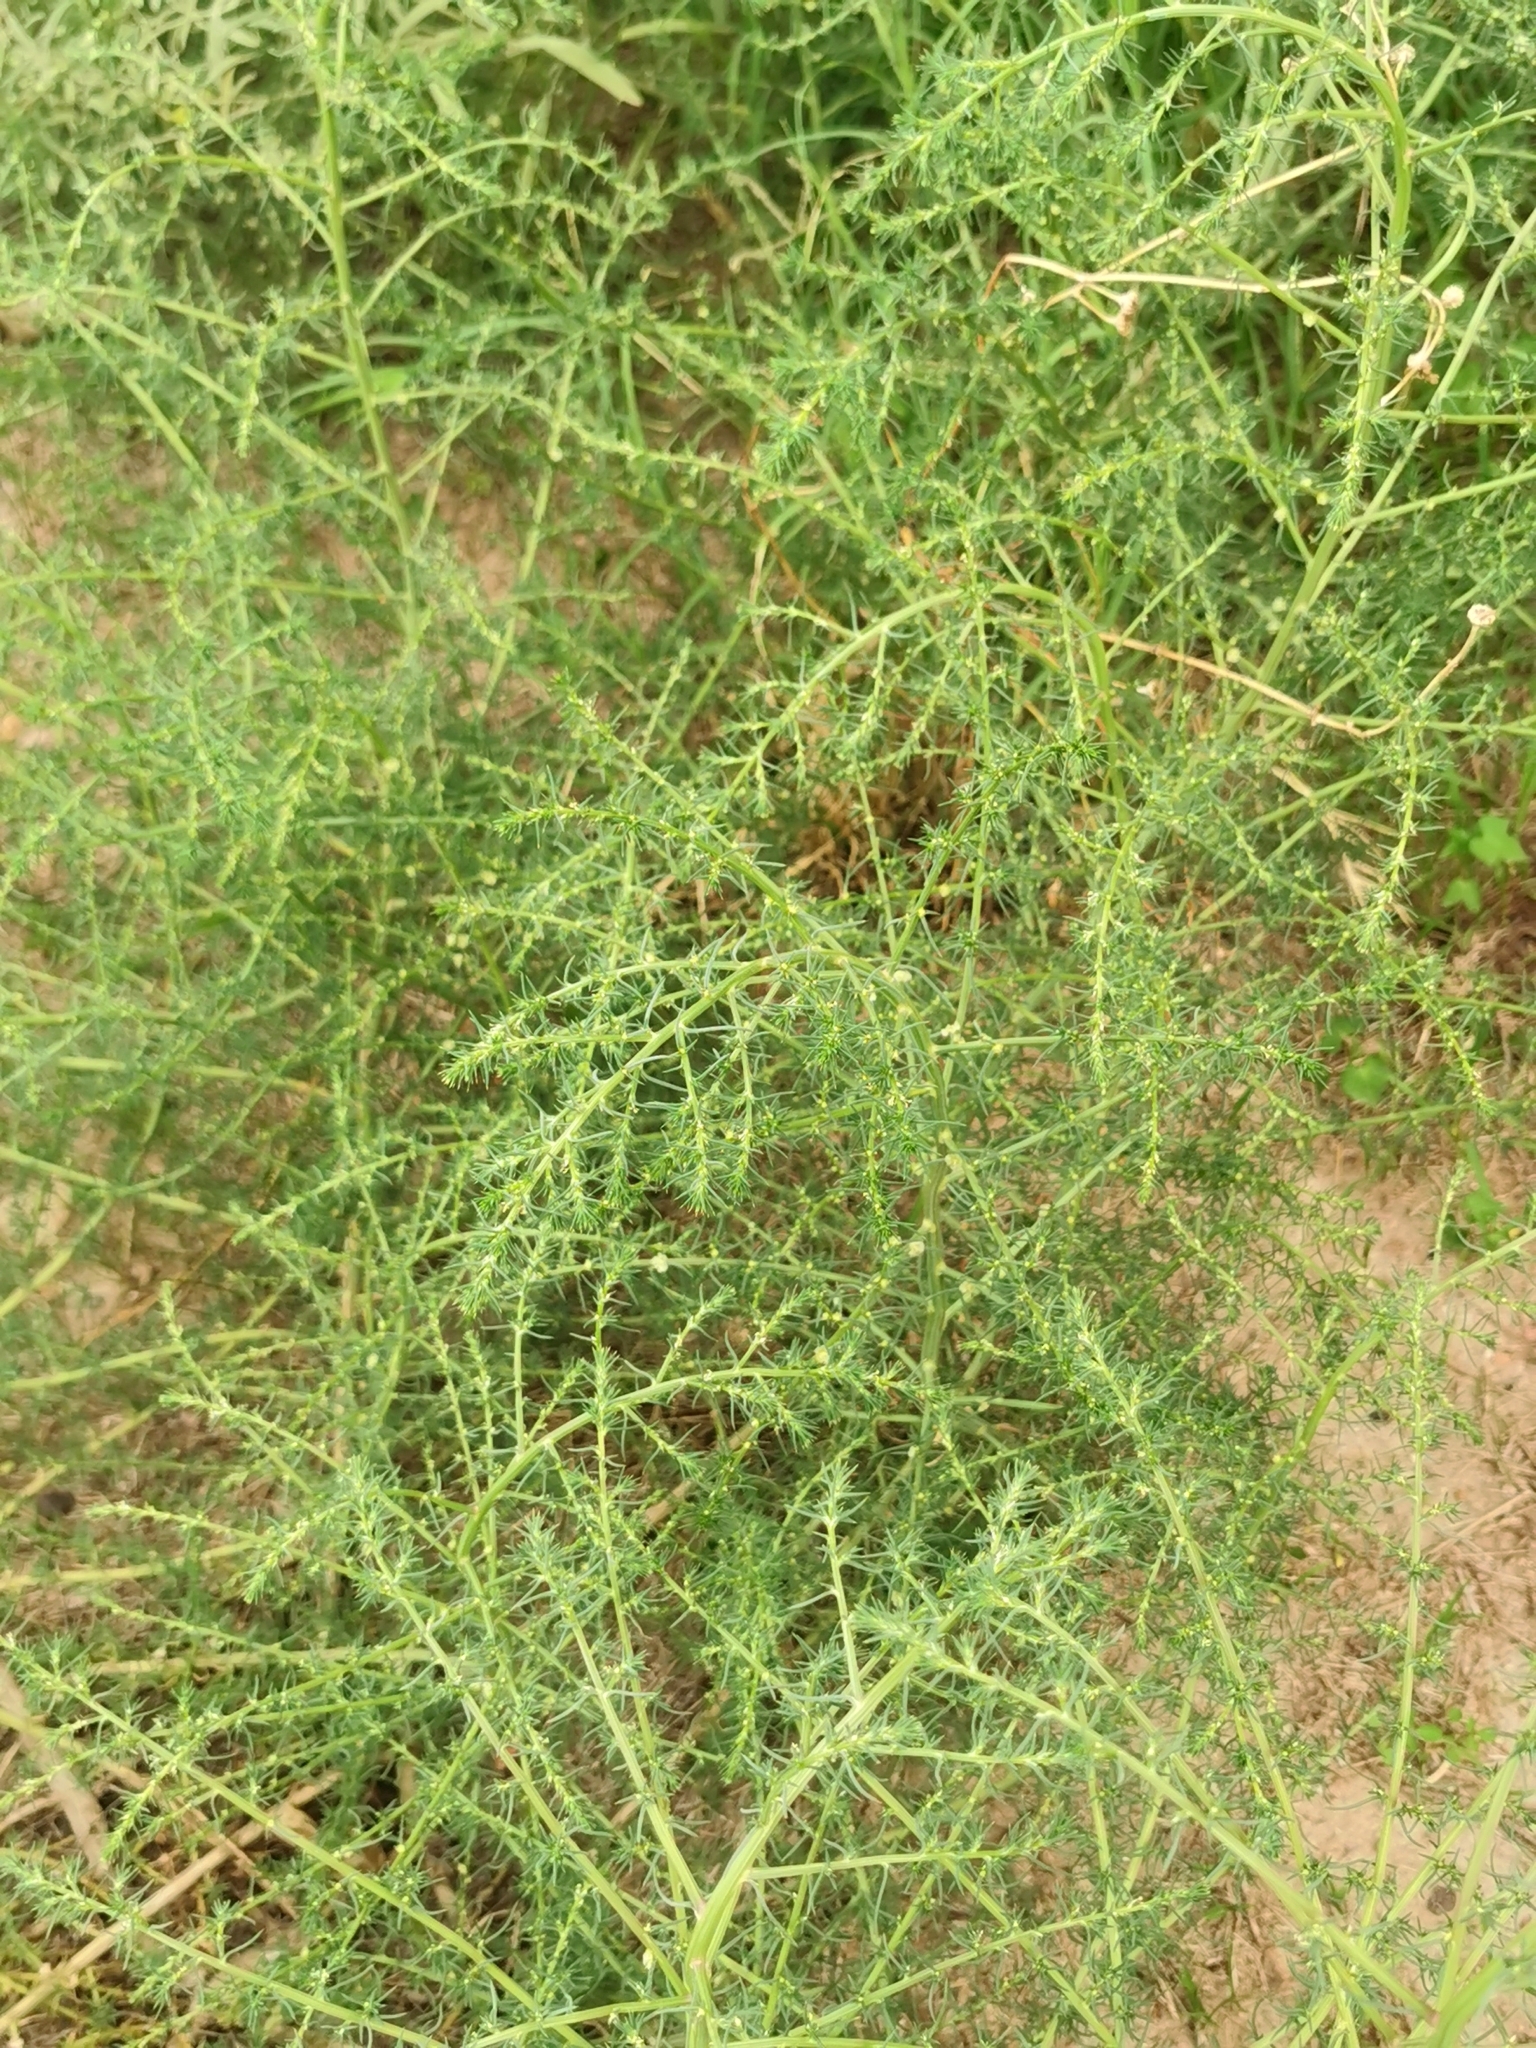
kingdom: Plantae
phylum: Tracheophyta
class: Magnoliopsida
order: Caryophyllales
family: Amaranthaceae
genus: Salsola
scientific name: Salsola tragus
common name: Prickly russian thistle
